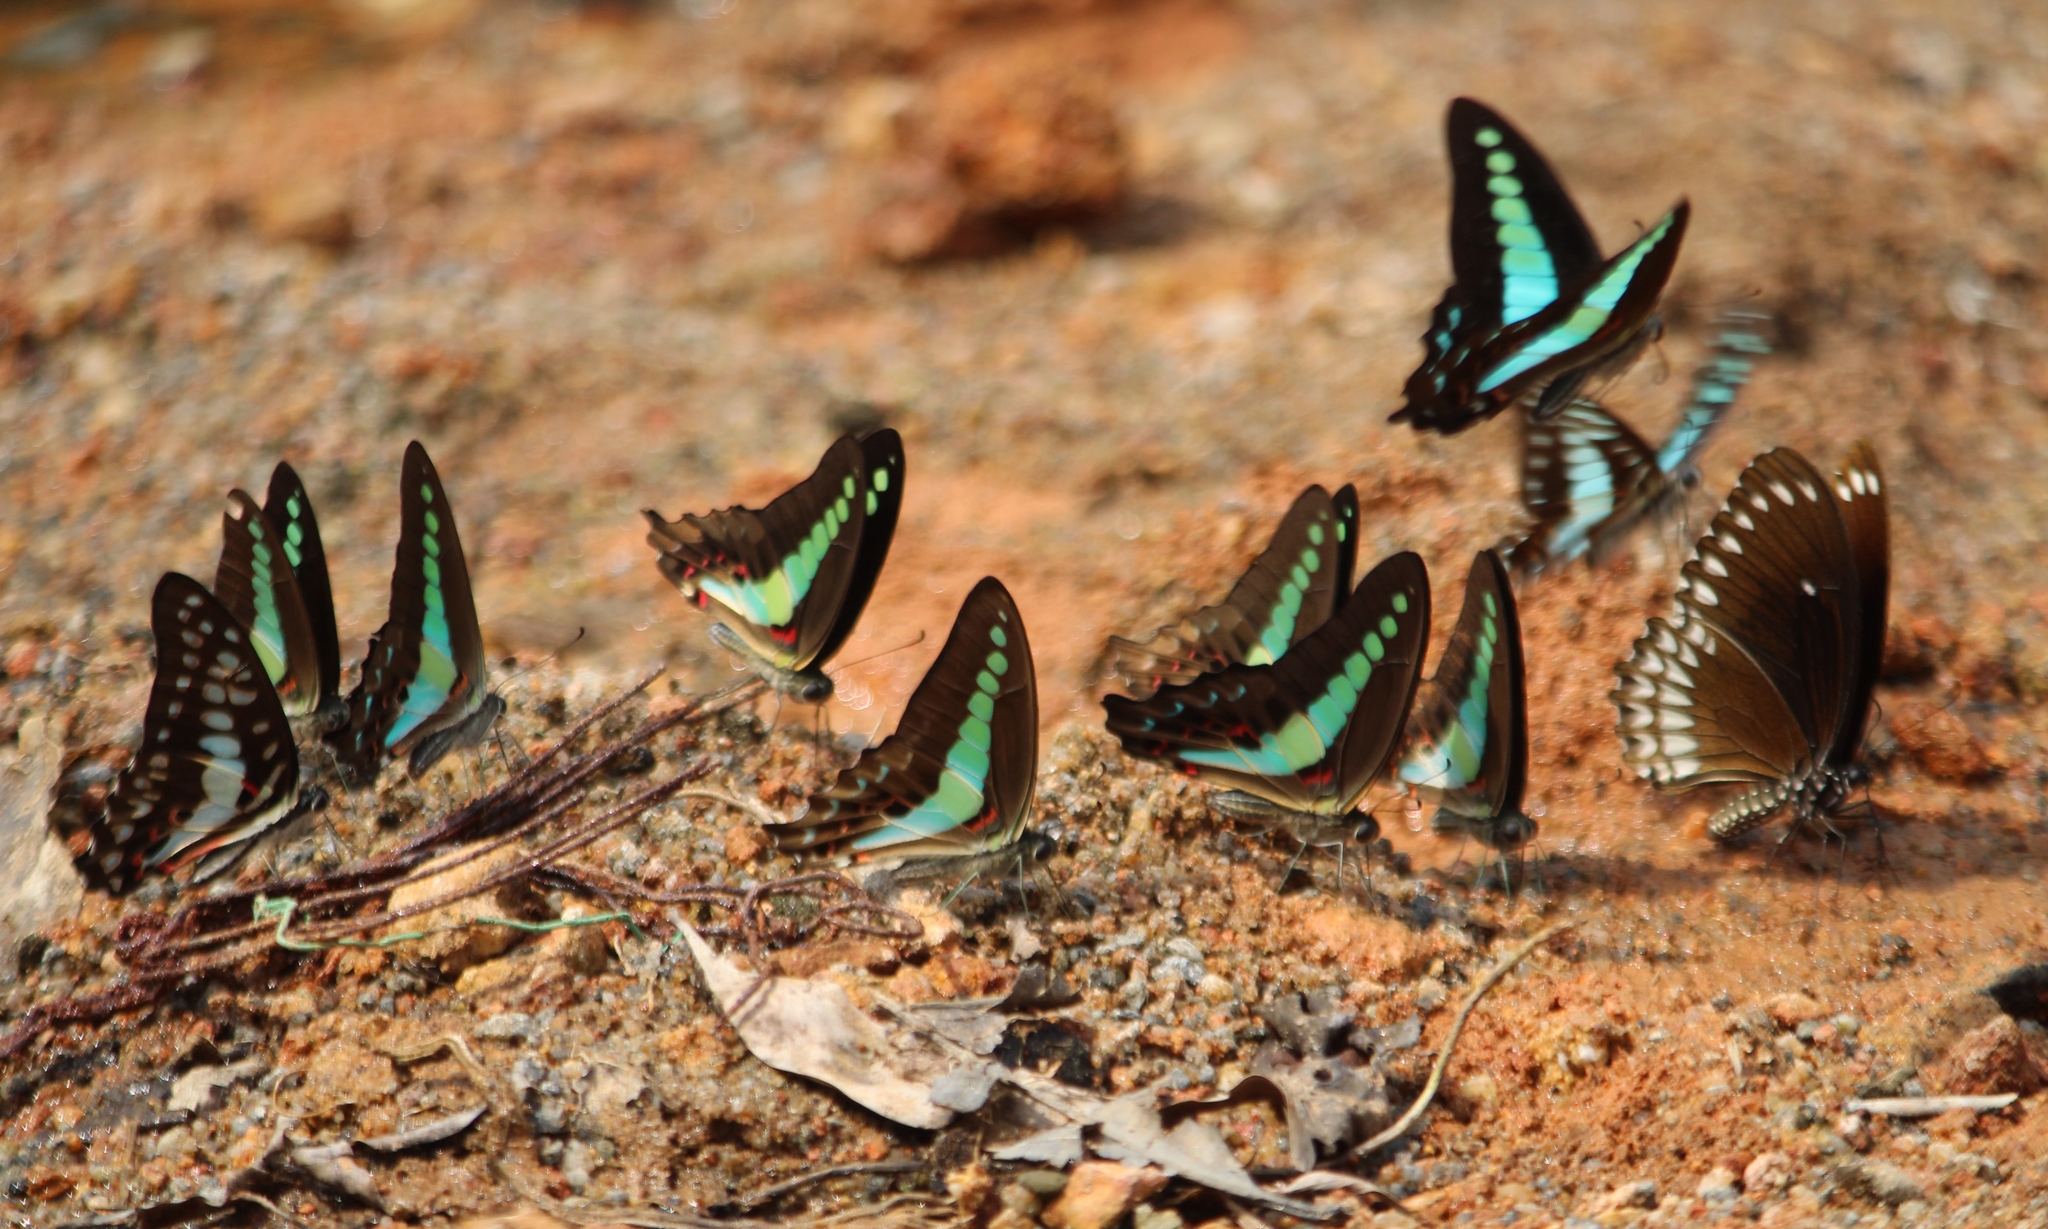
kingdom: Animalia
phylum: Arthropoda
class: Insecta
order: Lepidoptera
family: Papilionidae
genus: Graphium
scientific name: Graphium
